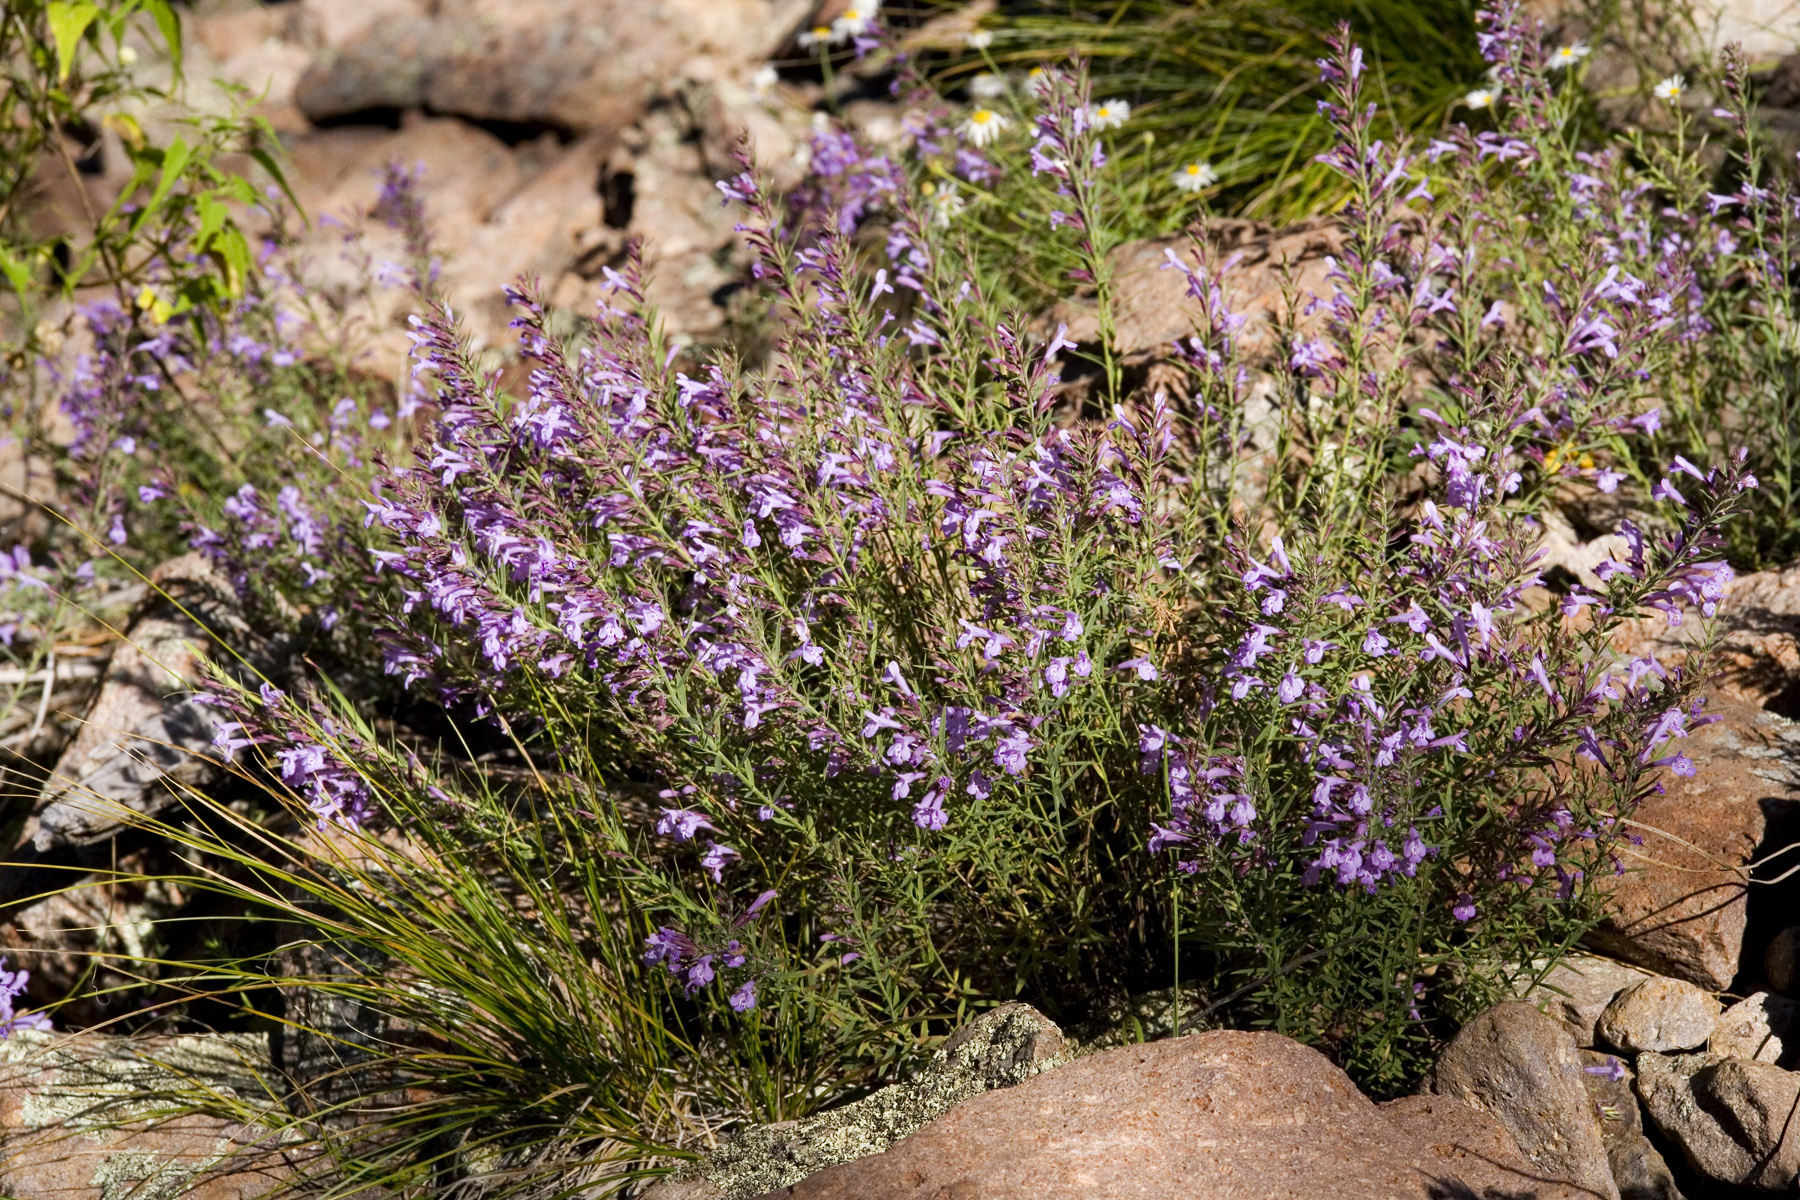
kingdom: Plantae
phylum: Tracheophyta
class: Magnoliopsida
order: Lamiales
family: Lamiaceae
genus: Hedeoma
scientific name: Hedeoma hyssopifolia
